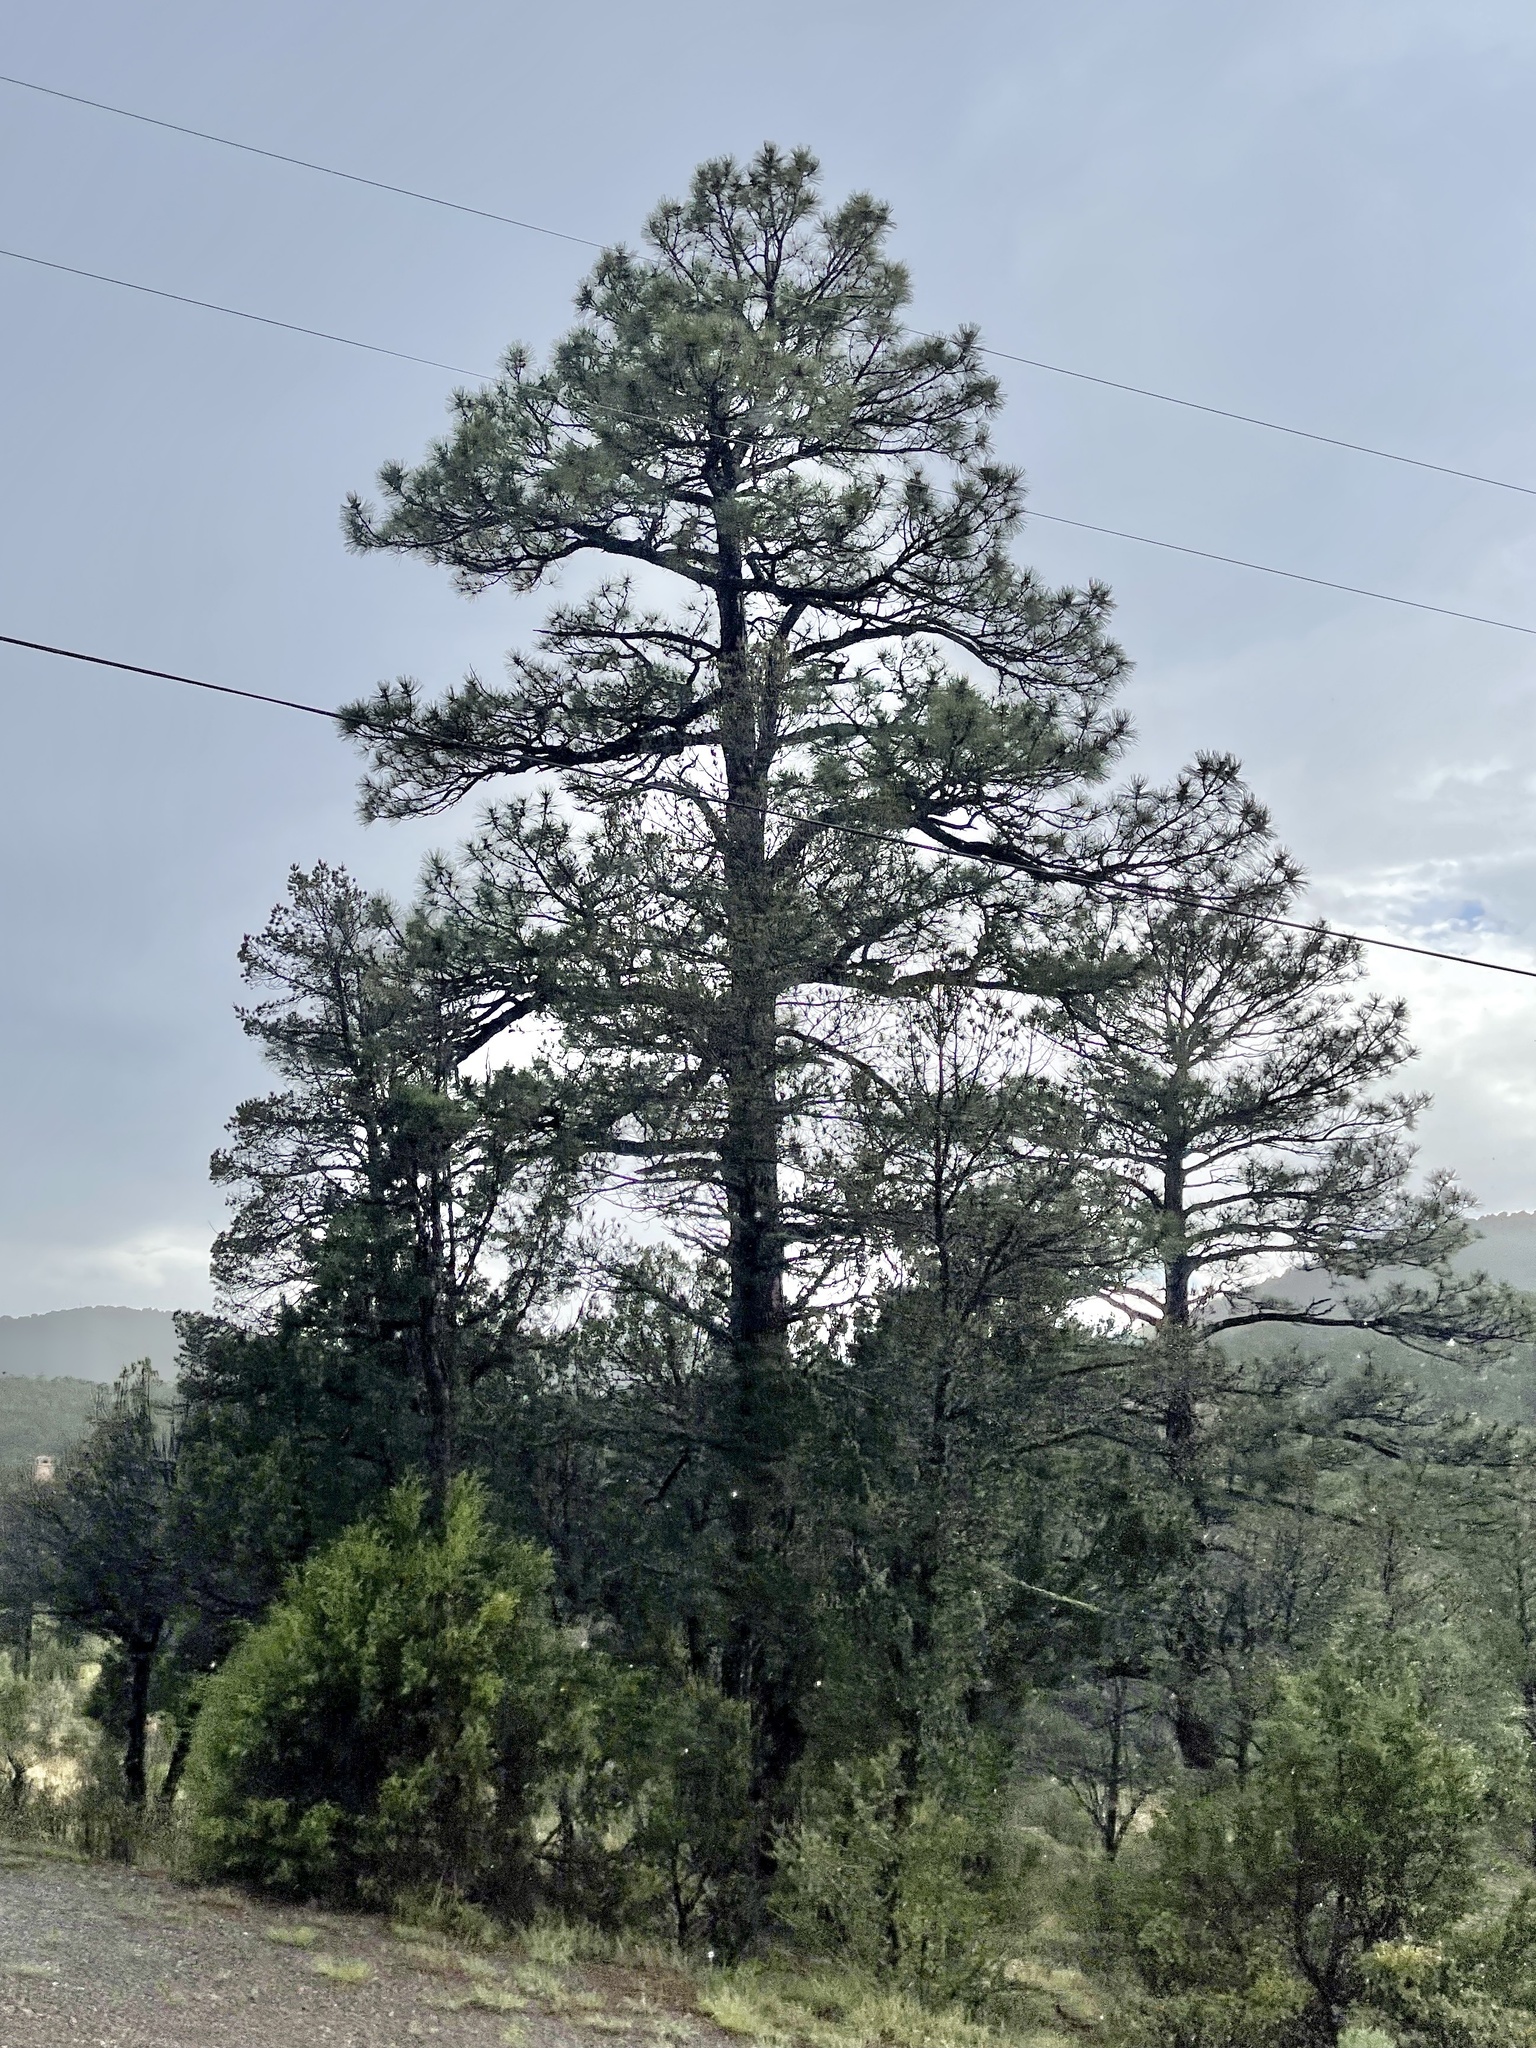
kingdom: Plantae
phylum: Tracheophyta
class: Pinopsida
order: Pinales
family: Pinaceae
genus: Pinus
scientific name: Pinus ponderosa
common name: Western yellow-pine
